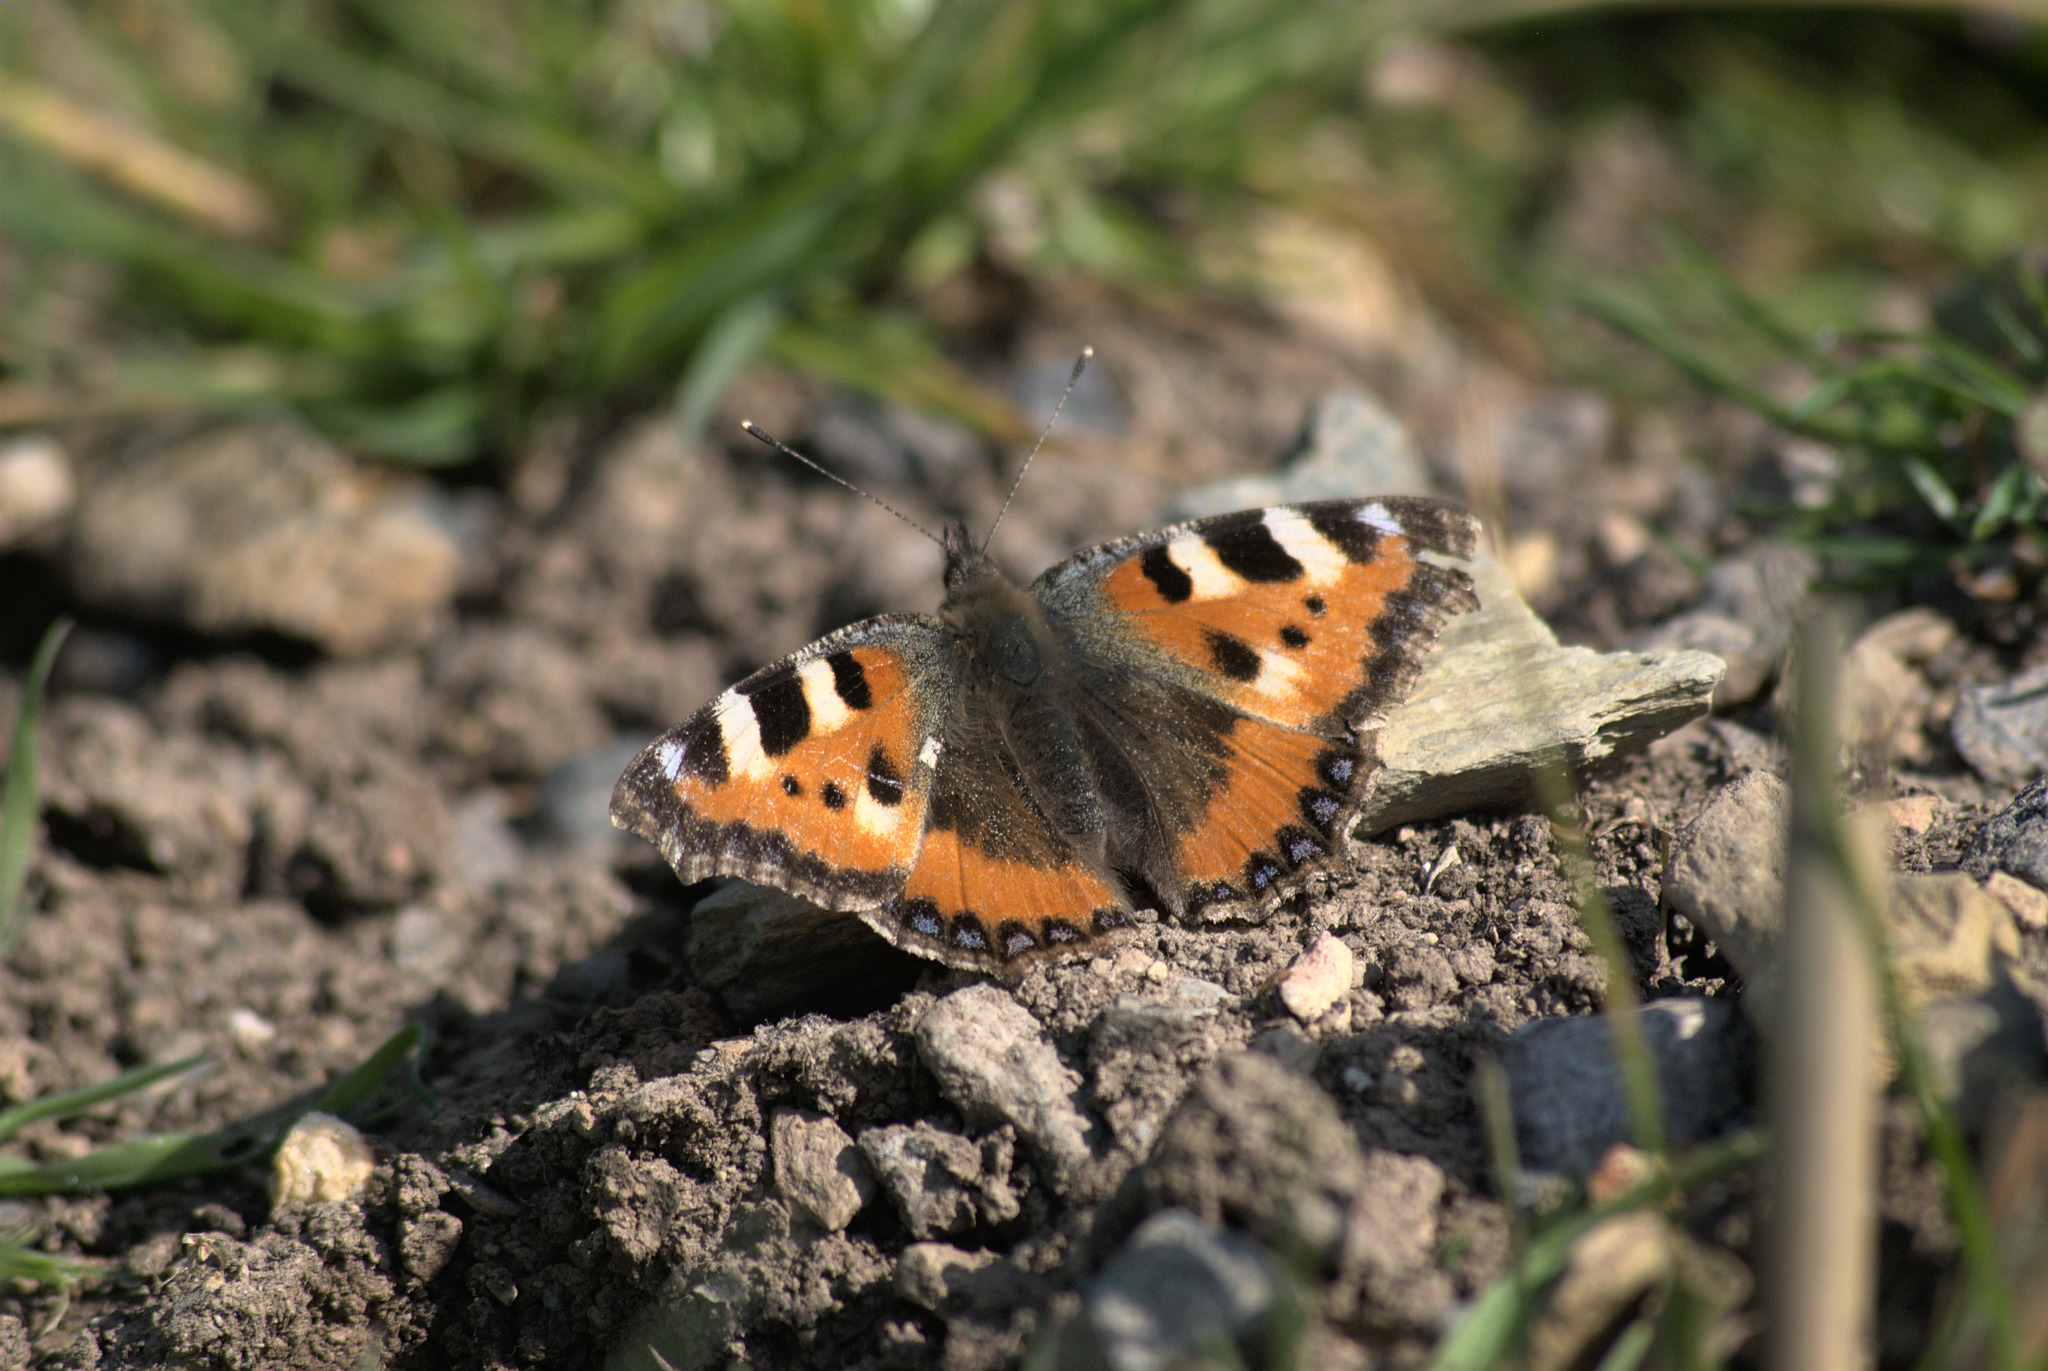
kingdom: Animalia
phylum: Arthropoda
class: Insecta
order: Lepidoptera
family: Nymphalidae
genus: Aglais
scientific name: Aglais urticae
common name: Small tortoiseshell
